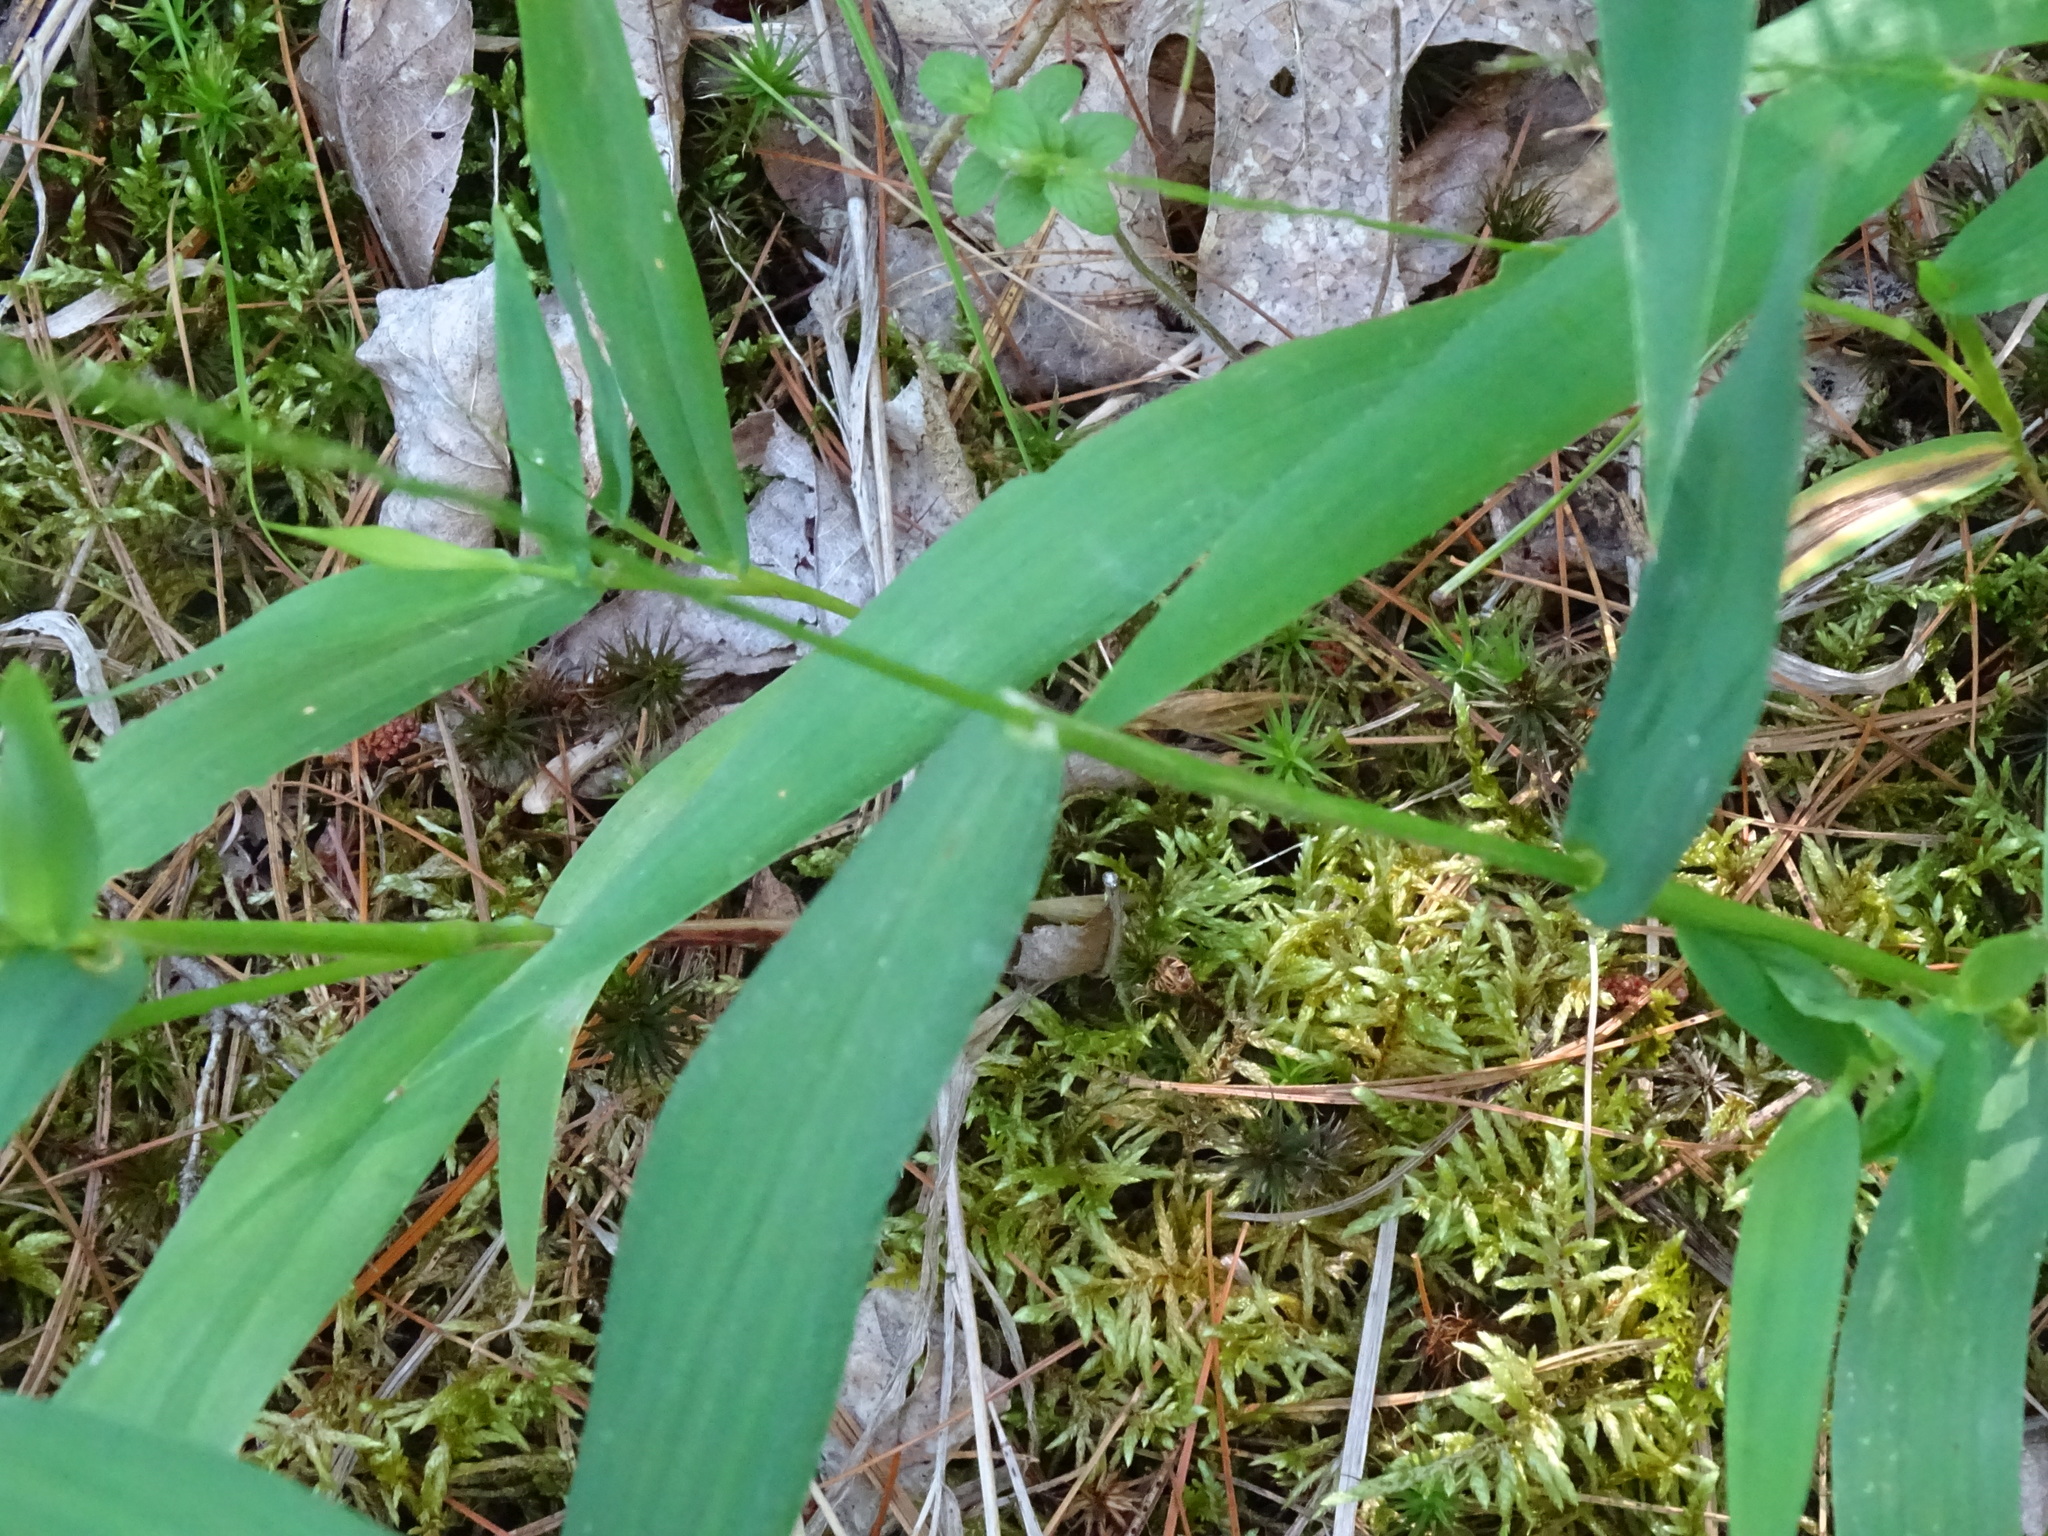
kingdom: Plantae
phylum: Tracheophyta
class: Liliopsida
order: Poales
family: Poaceae
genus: Dichanthelium
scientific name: Dichanthelium latifolium
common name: Broad-leaved panicgrass
